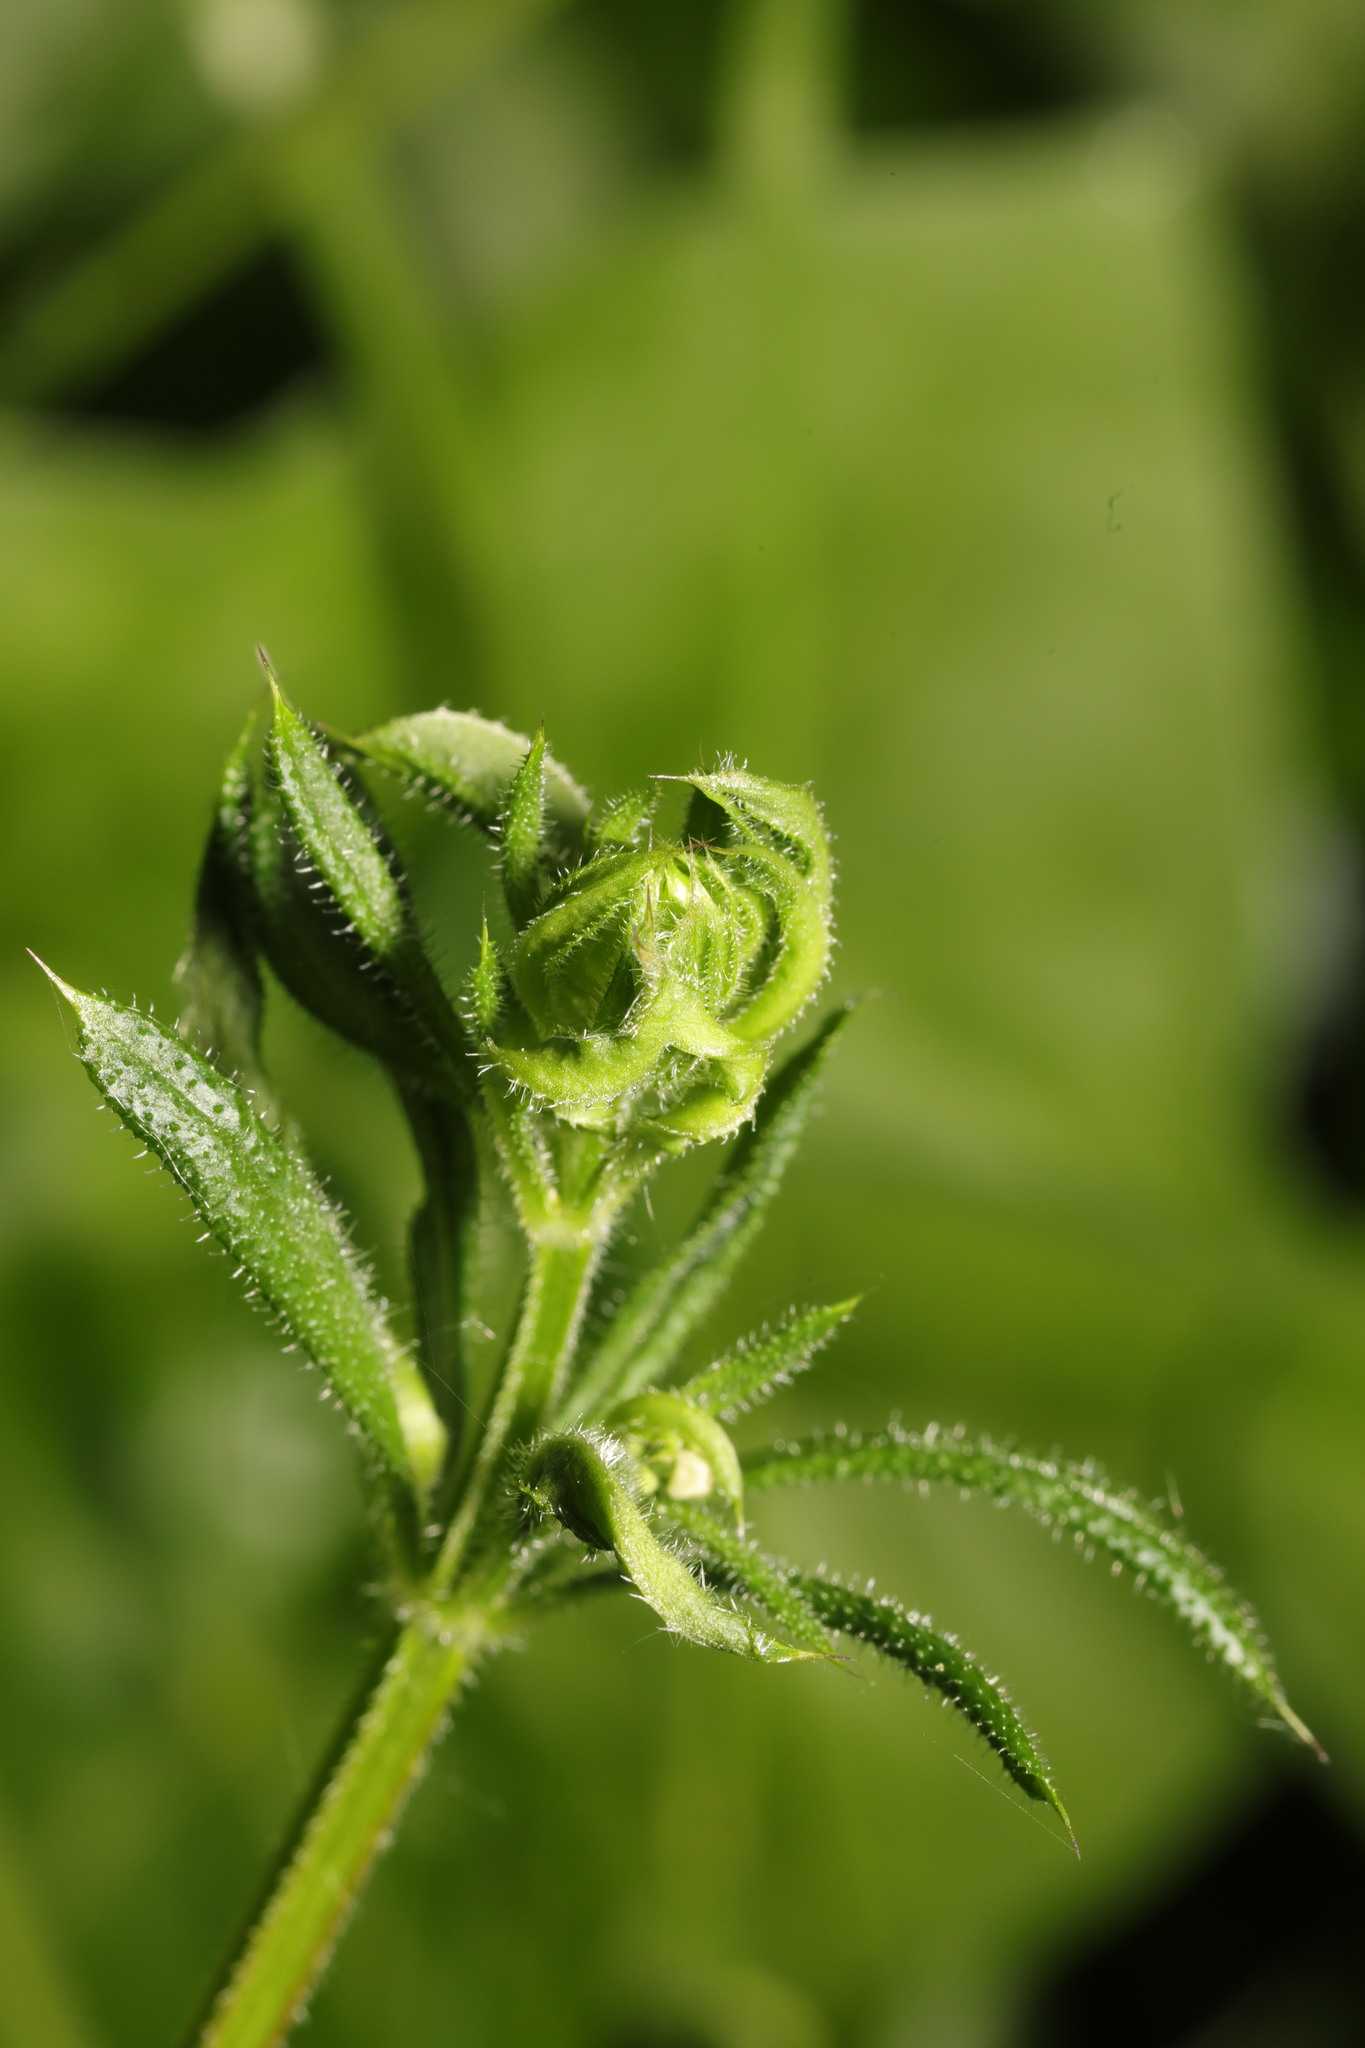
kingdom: Animalia
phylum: Arthropoda
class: Arachnida
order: Trombidiformes
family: Eriophyidae
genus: Cecidophyes
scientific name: Cecidophyes rouhollahi
